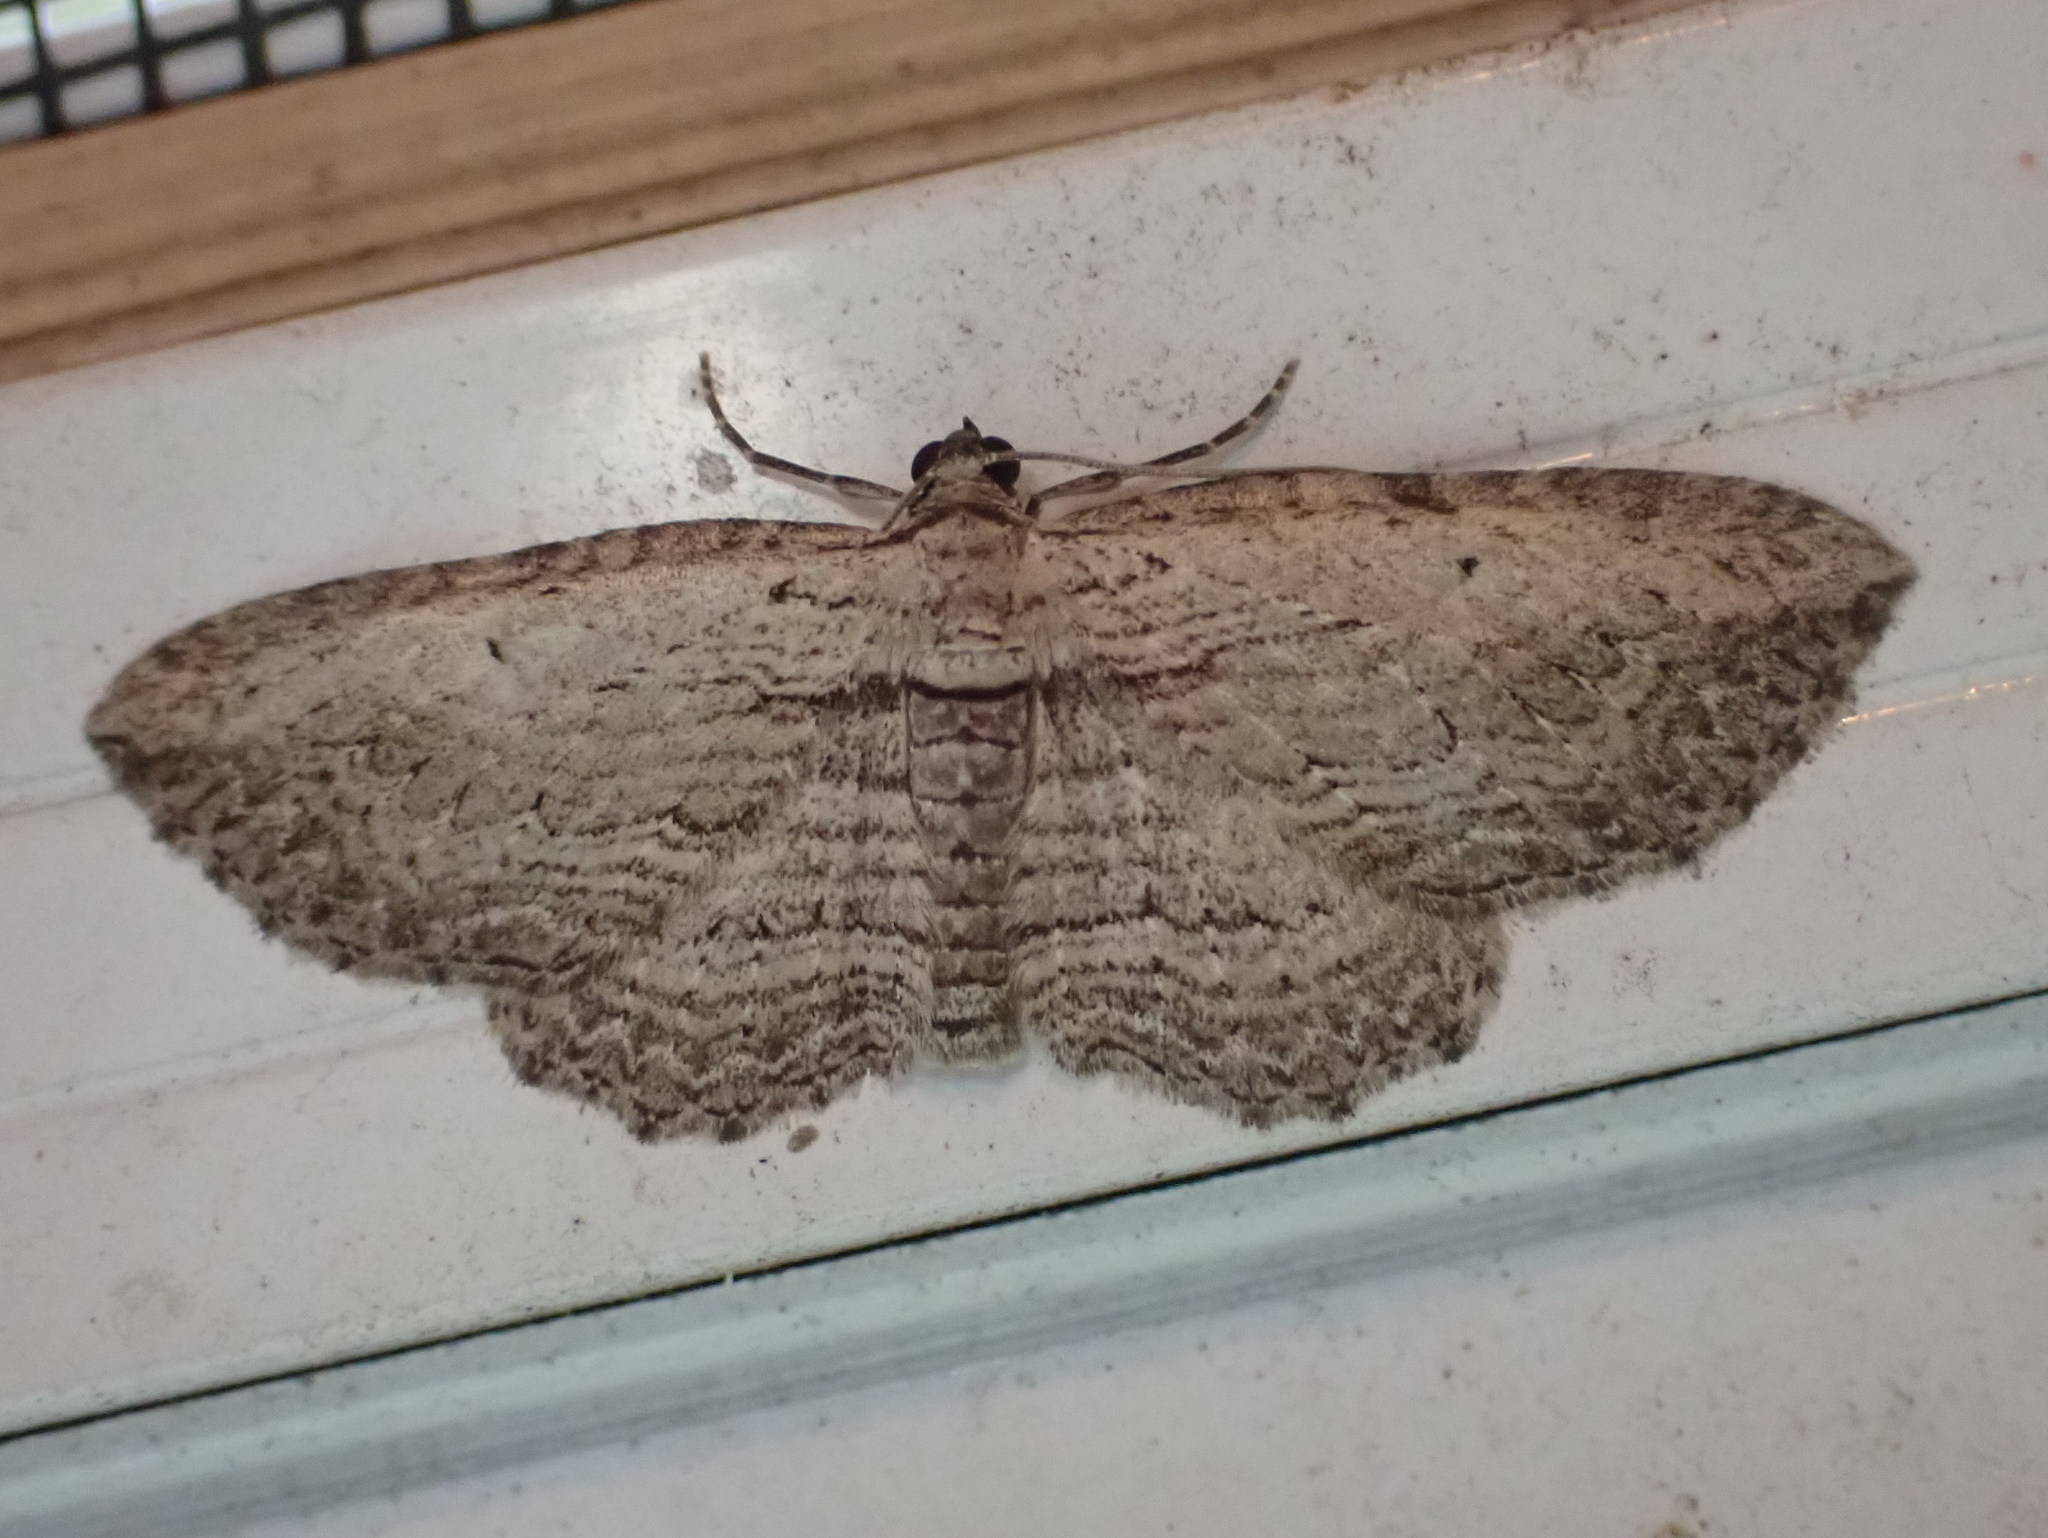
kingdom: Animalia
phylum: Arthropoda
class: Insecta
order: Lepidoptera
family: Geometridae
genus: Horisme
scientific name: Horisme intestinata
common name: Brown bark carpet
